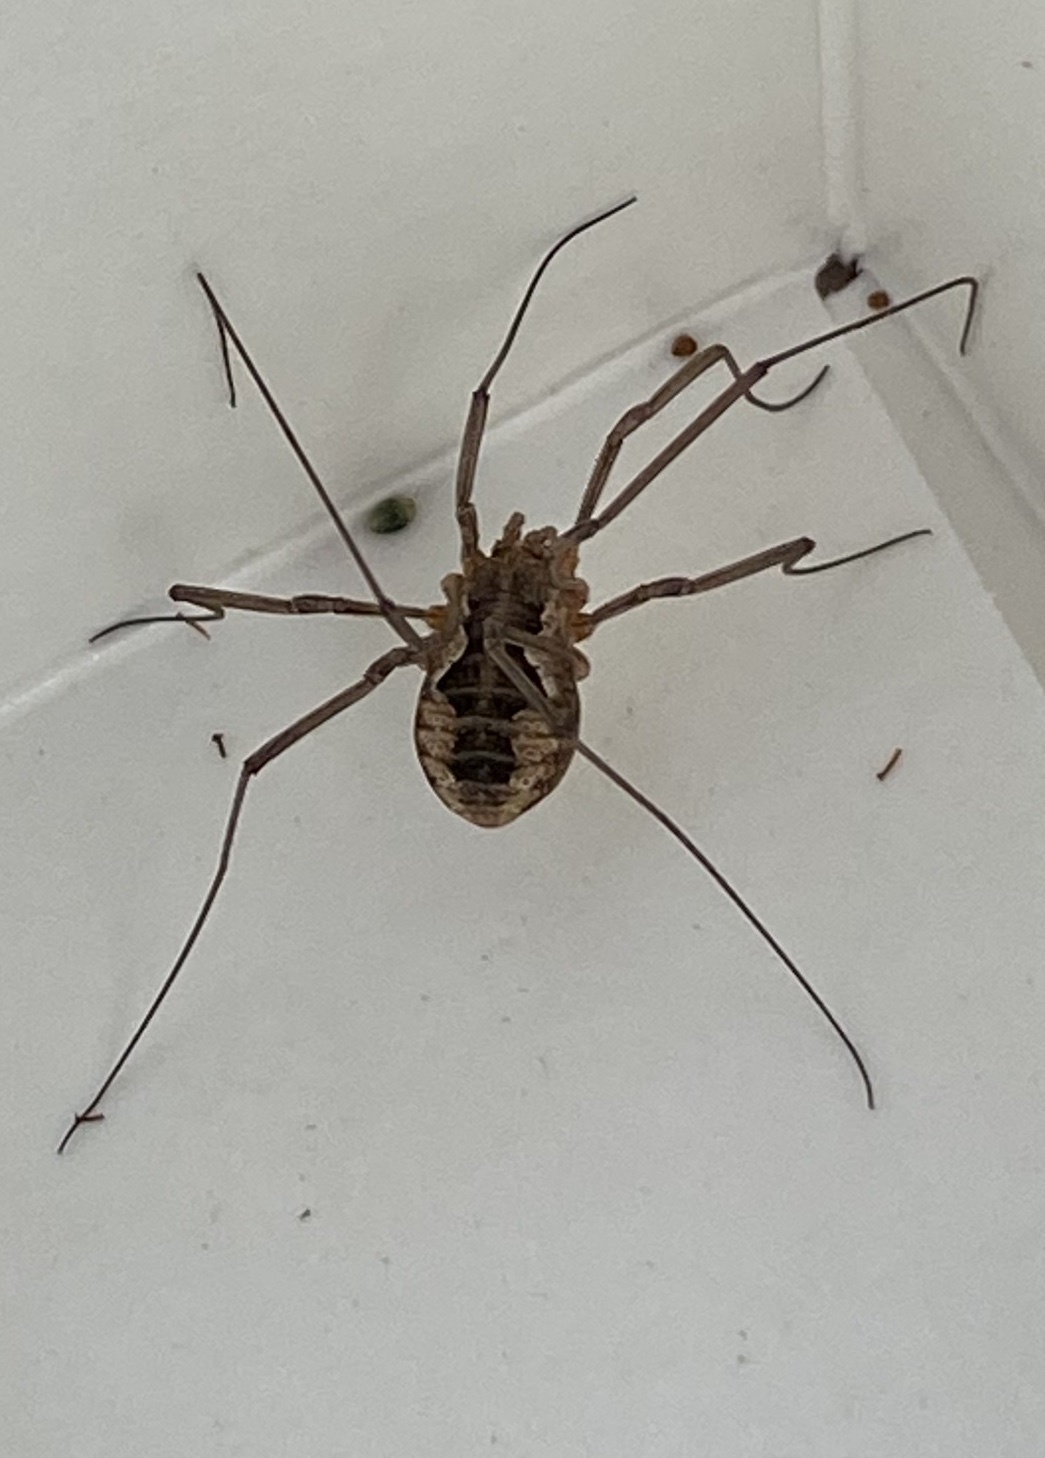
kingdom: Animalia
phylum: Arthropoda
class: Arachnida
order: Opiliones
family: Phalangiidae
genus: Phalangium
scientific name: Phalangium opilio
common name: Daddy longleg
